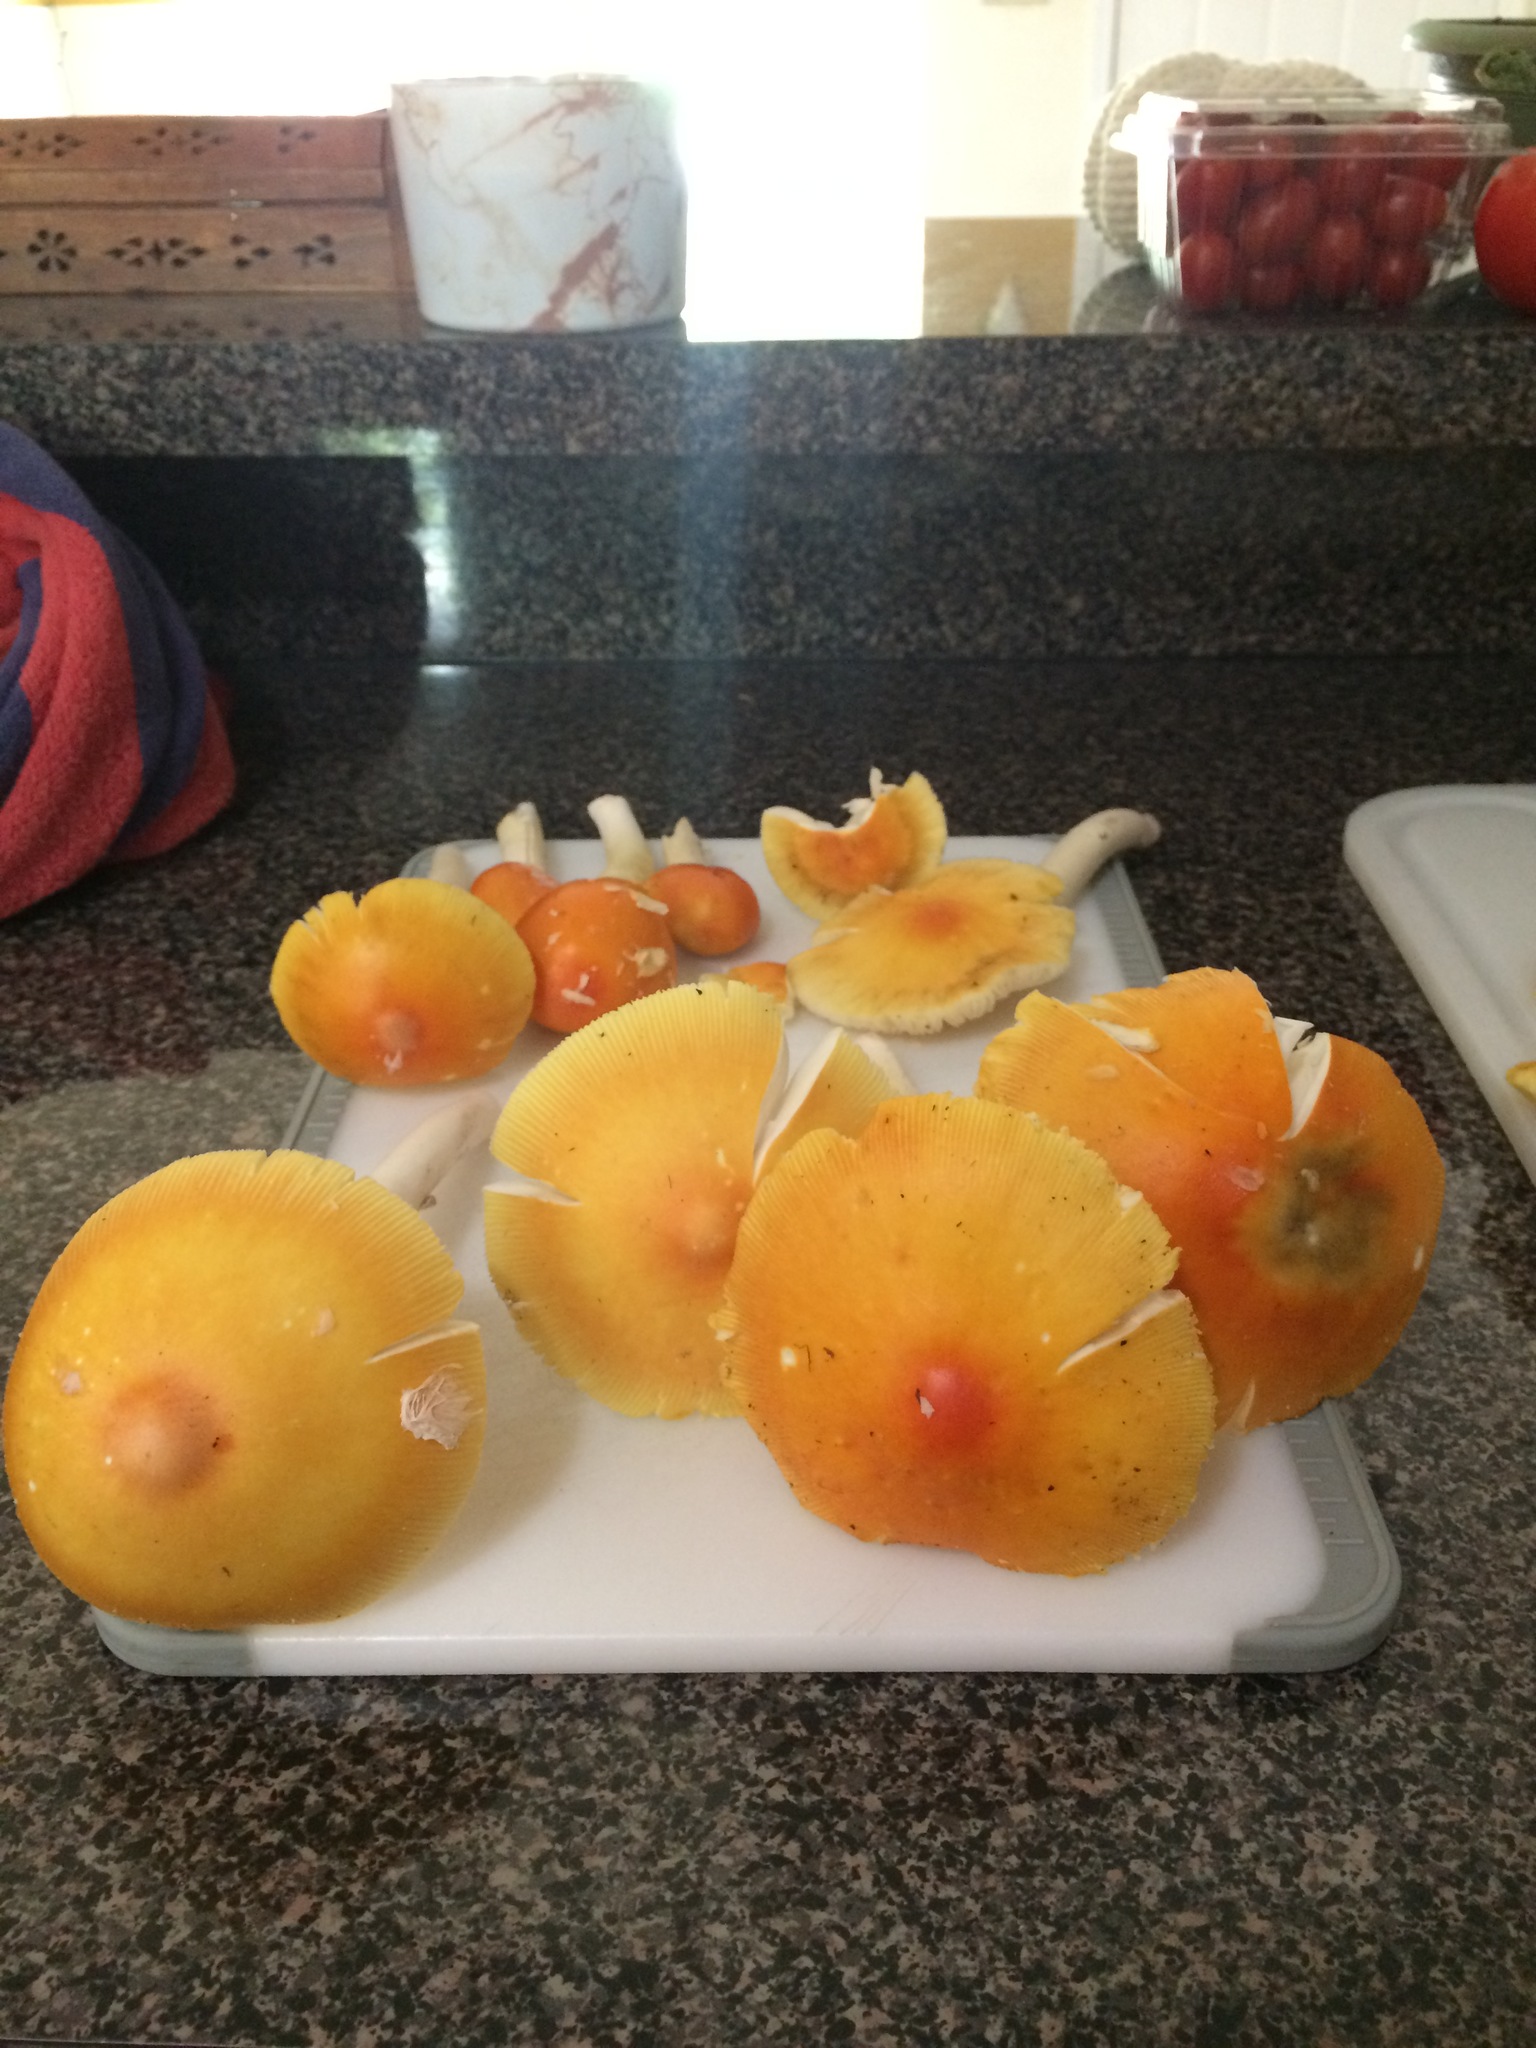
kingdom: Fungi
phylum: Basidiomycota
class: Agaricomycetes
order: Agaricales
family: Amanitaceae
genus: Amanita
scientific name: Amanita arkansana
